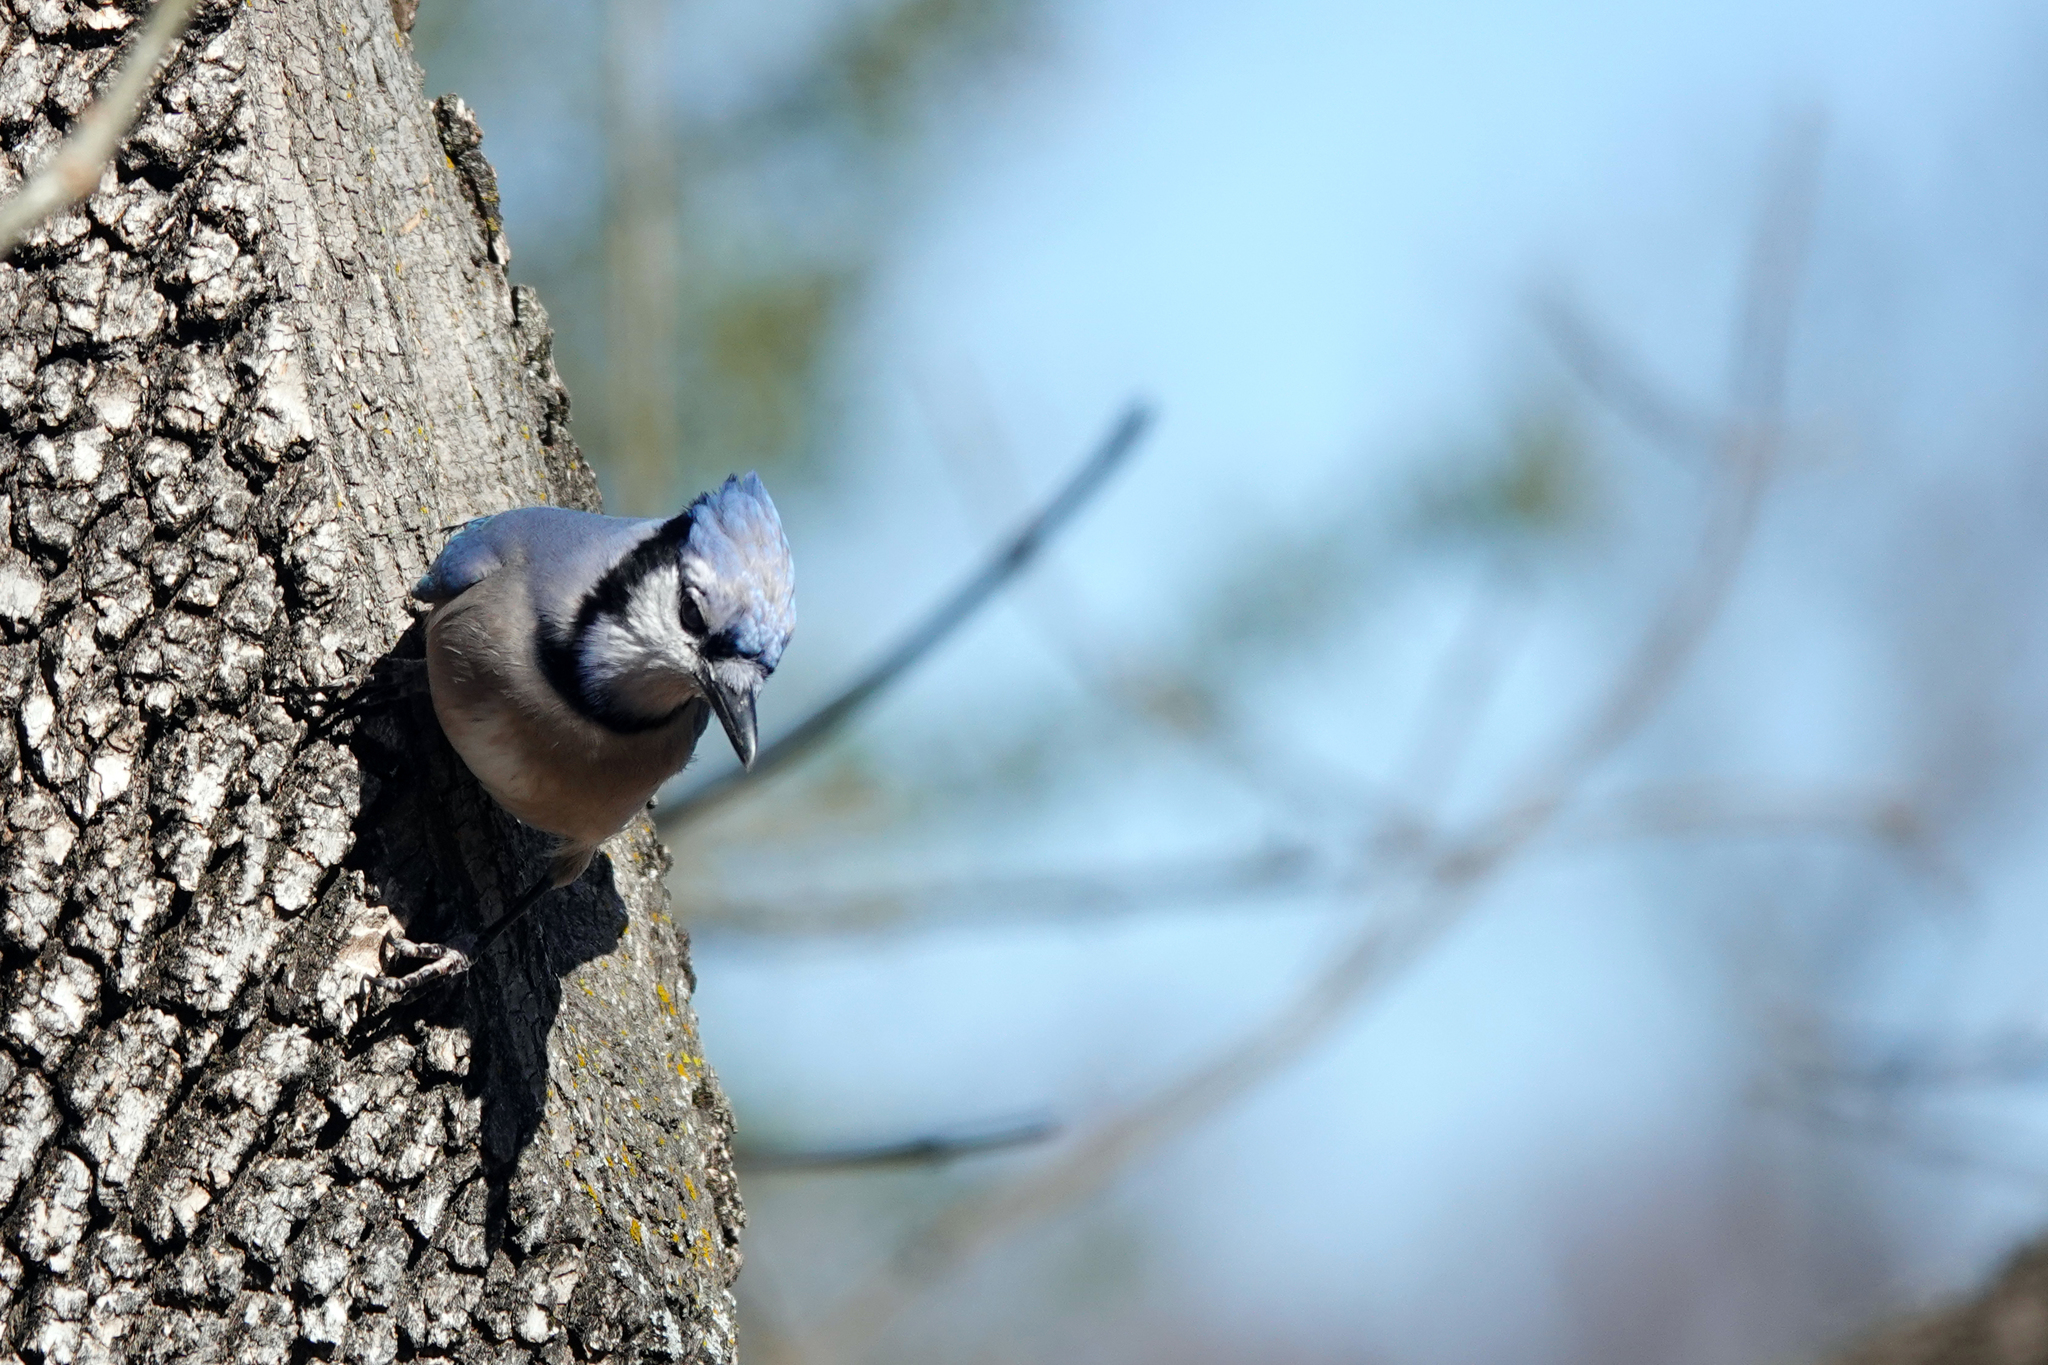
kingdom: Animalia
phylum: Chordata
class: Aves
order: Passeriformes
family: Corvidae
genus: Cyanocitta
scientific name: Cyanocitta cristata
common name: Blue jay
